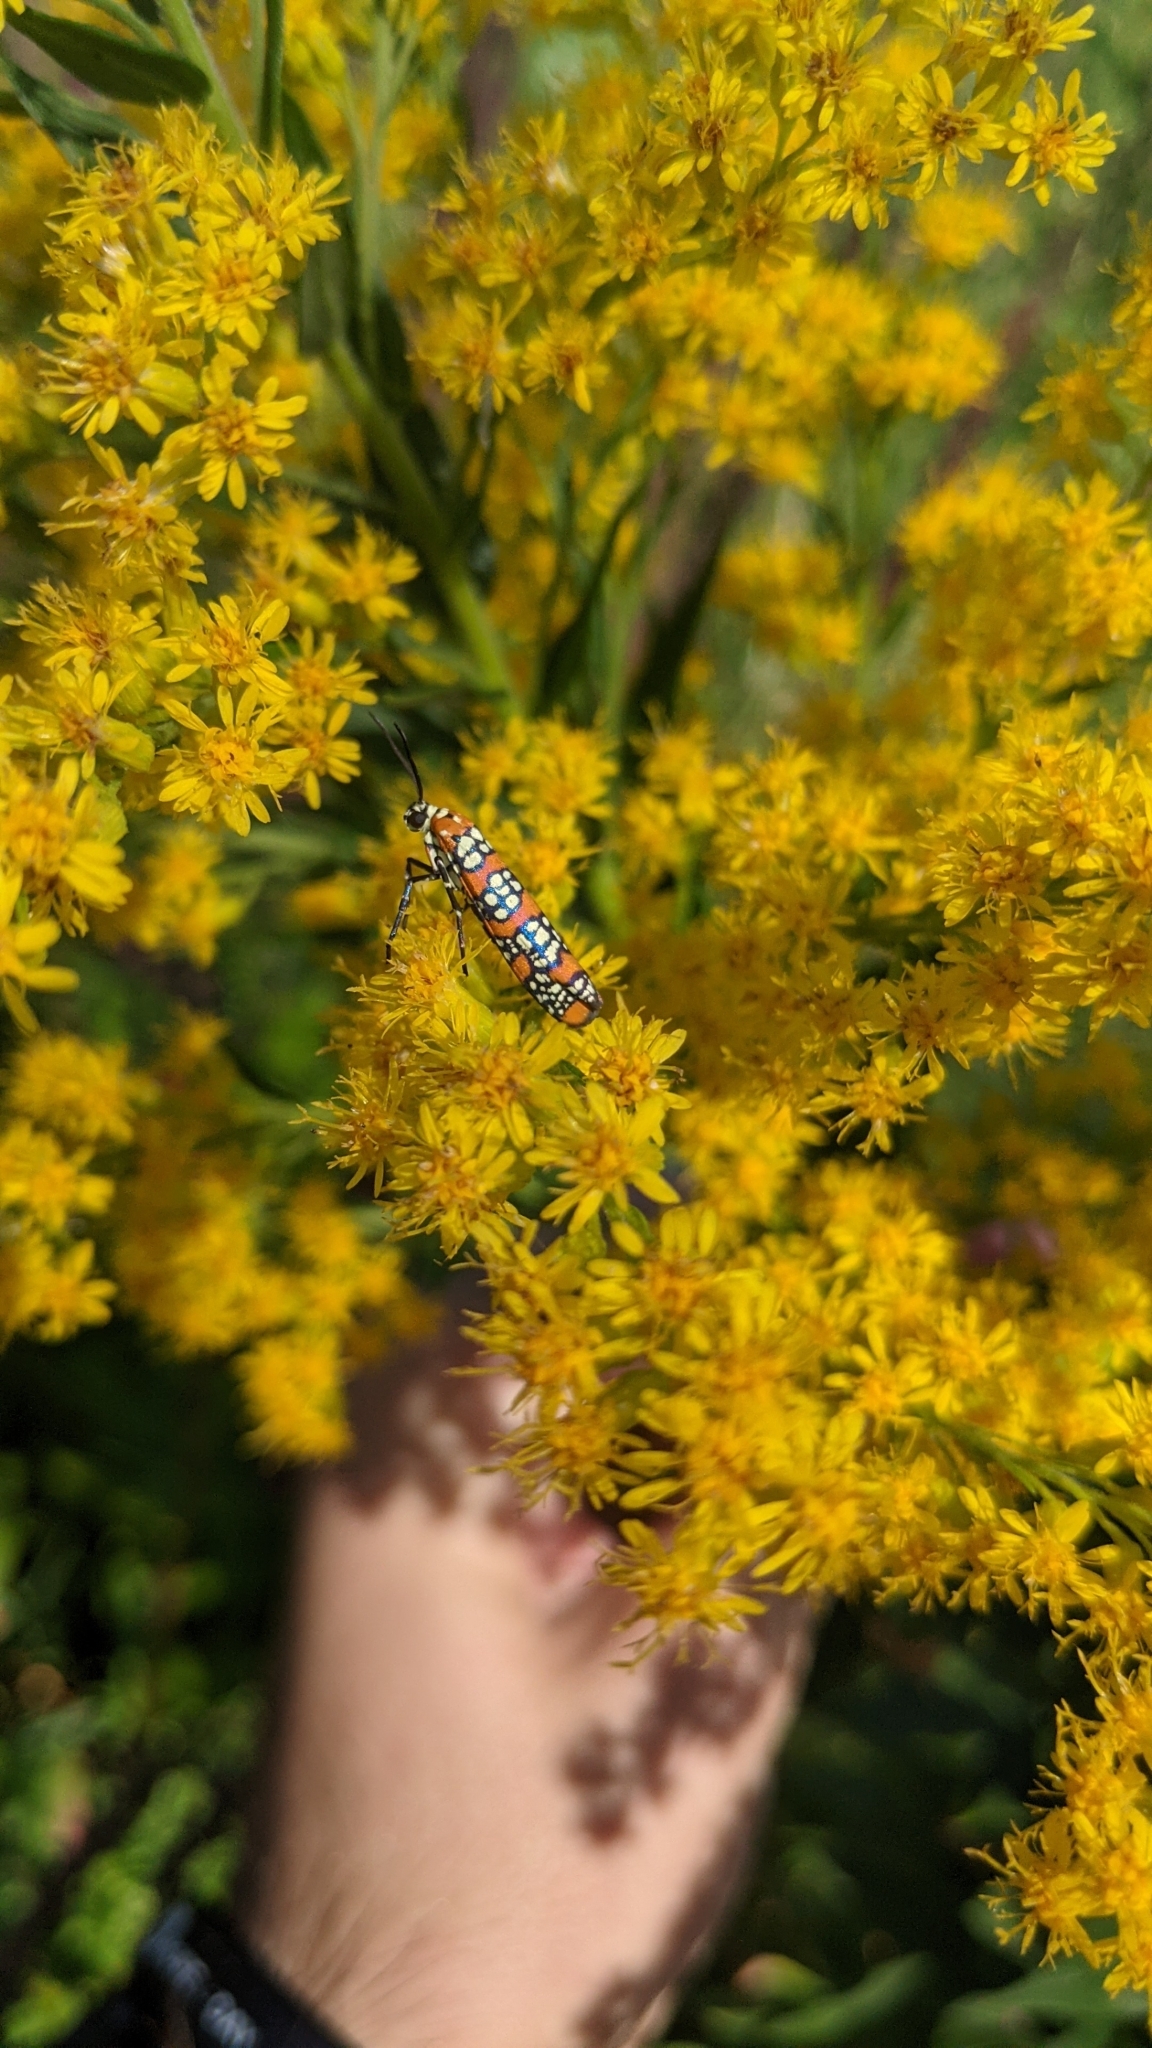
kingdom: Animalia
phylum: Arthropoda
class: Insecta
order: Lepidoptera
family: Attevidae
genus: Atteva
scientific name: Atteva punctella
